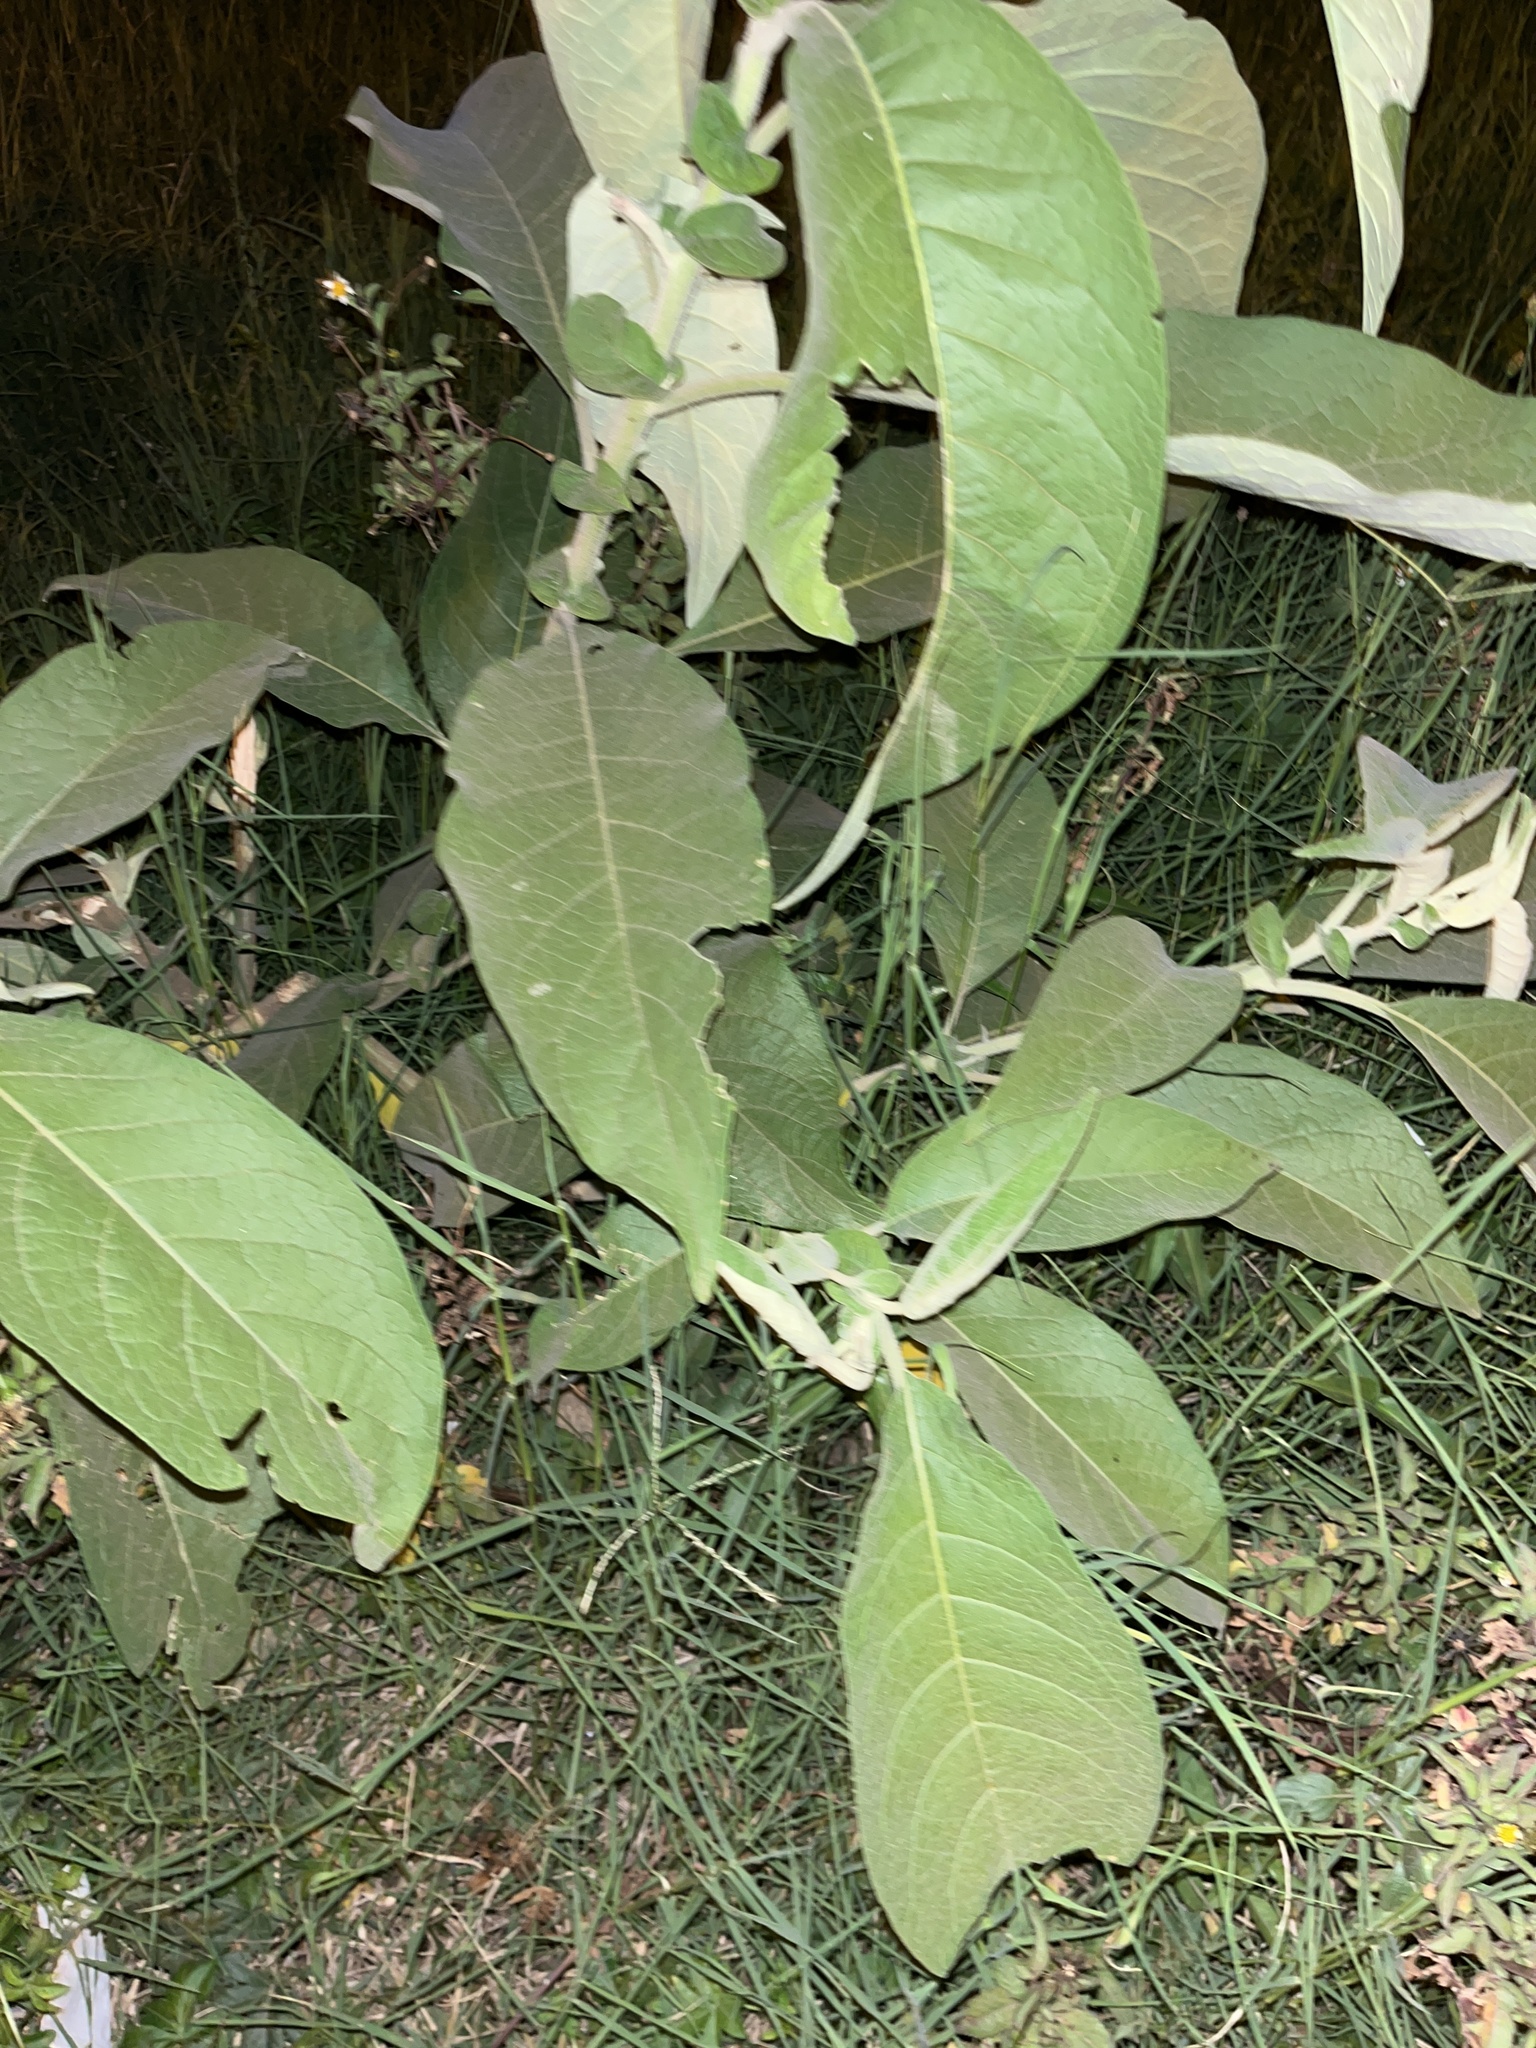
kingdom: Plantae
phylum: Tracheophyta
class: Magnoliopsida
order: Solanales
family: Solanaceae
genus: Solanum
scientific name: Solanum mauritianum
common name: Earleaf nightshade
